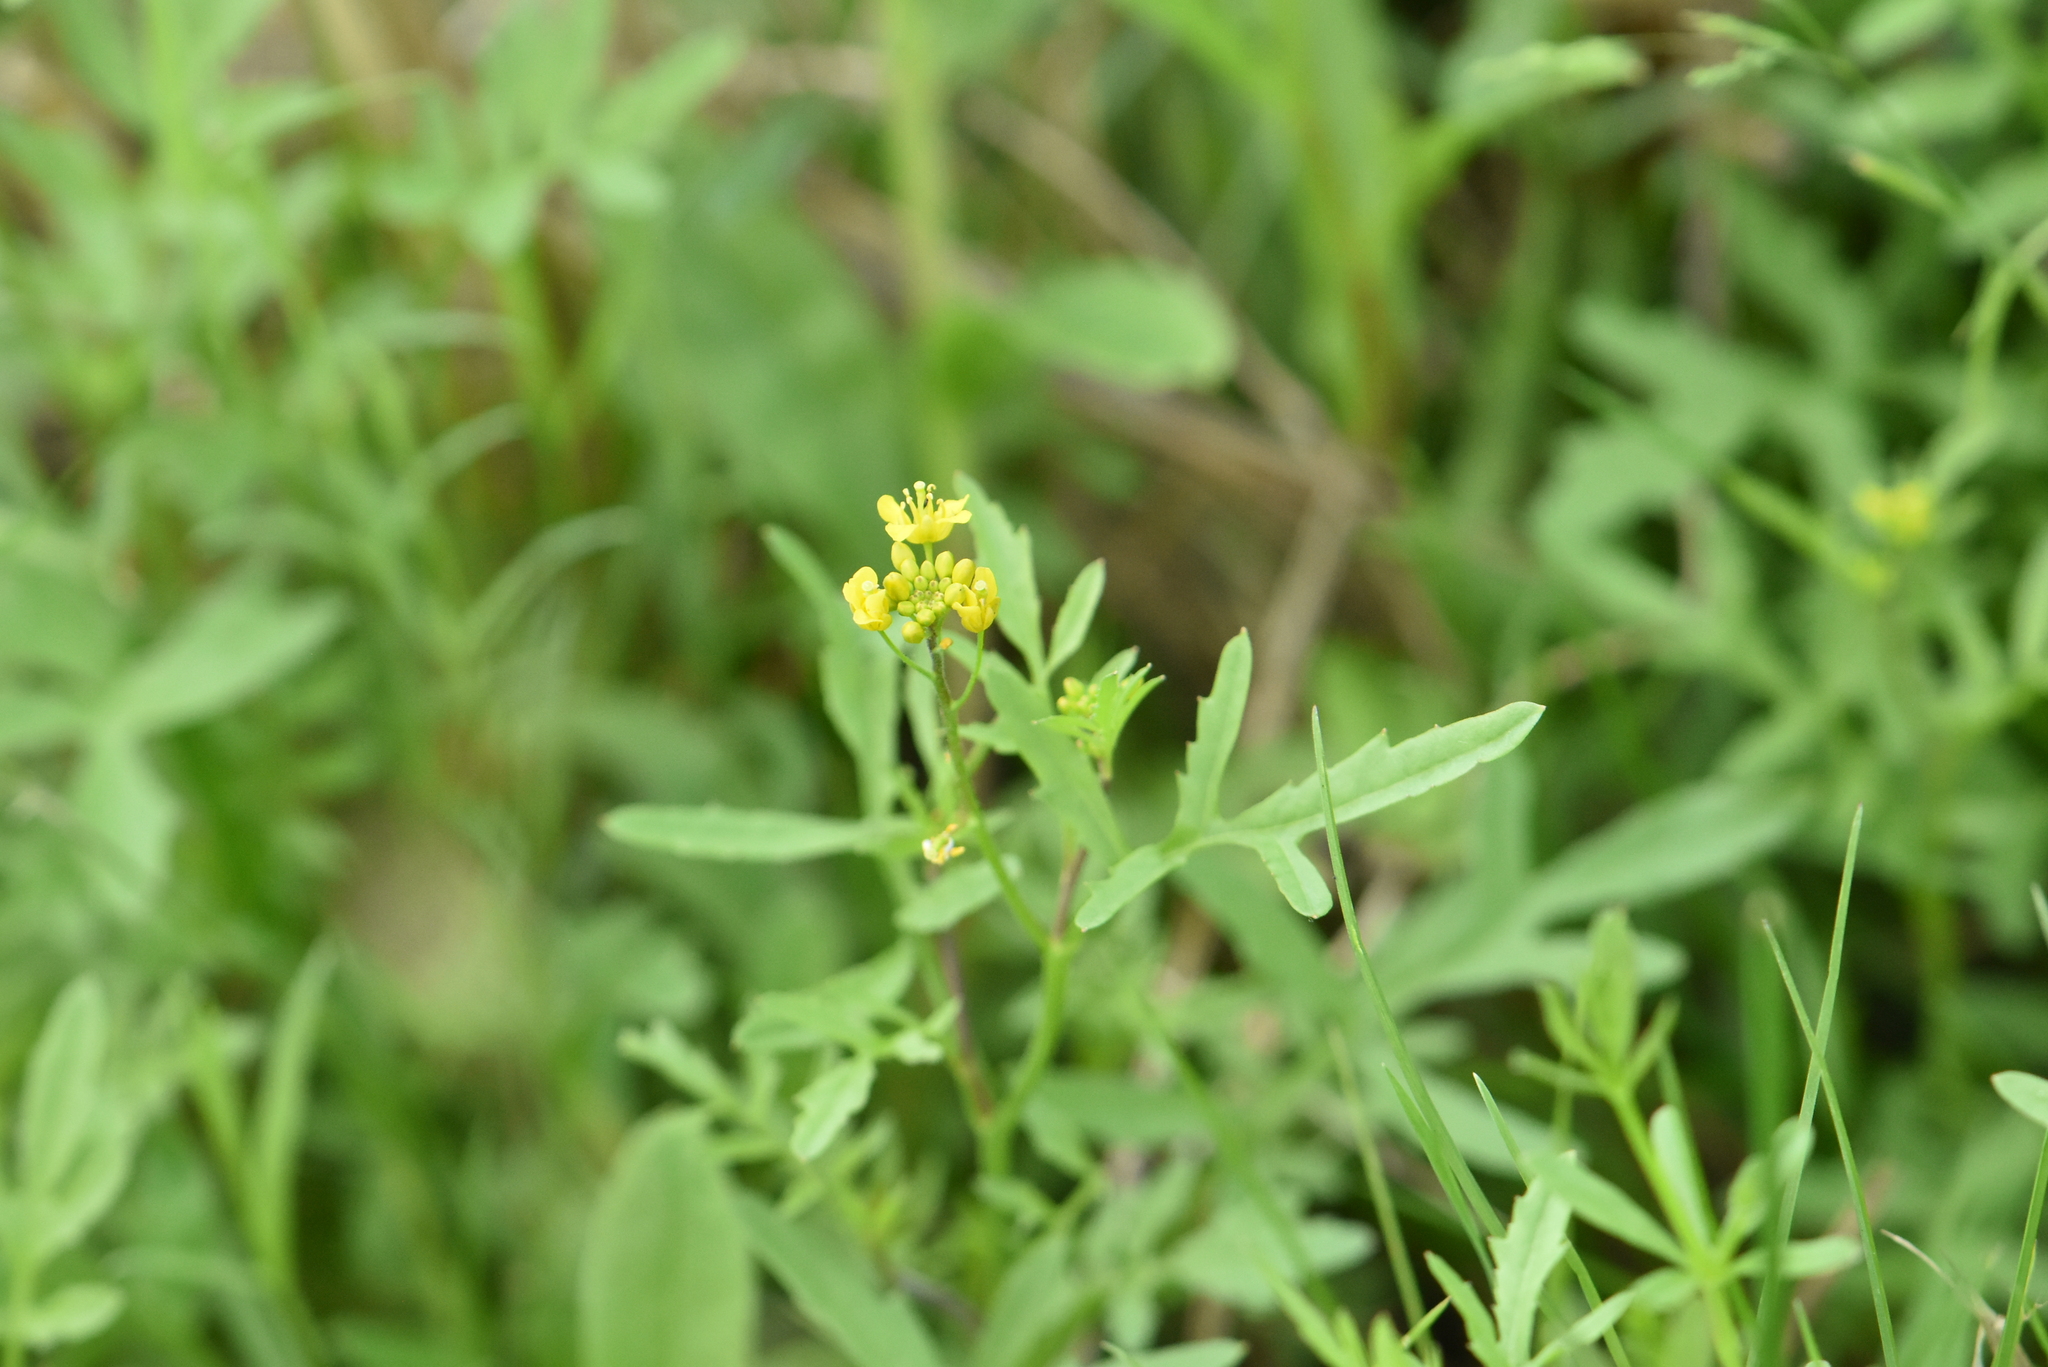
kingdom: Plantae
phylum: Tracheophyta
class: Magnoliopsida
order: Brassicales
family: Brassicaceae
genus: Rorippa
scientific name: Rorippa sylvestris
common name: Creeping yellowcress
